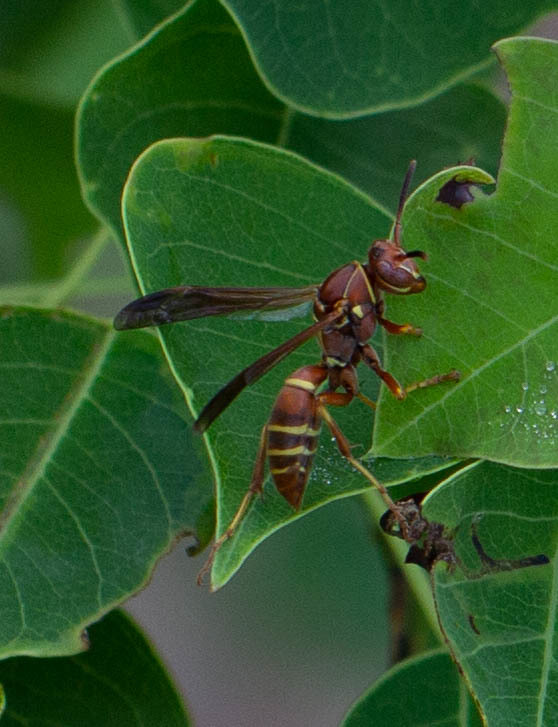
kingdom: Animalia
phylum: Arthropoda
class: Insecta
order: Hymenoptera
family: Eumenidae
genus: Polistes
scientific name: Polistes dorsalis
